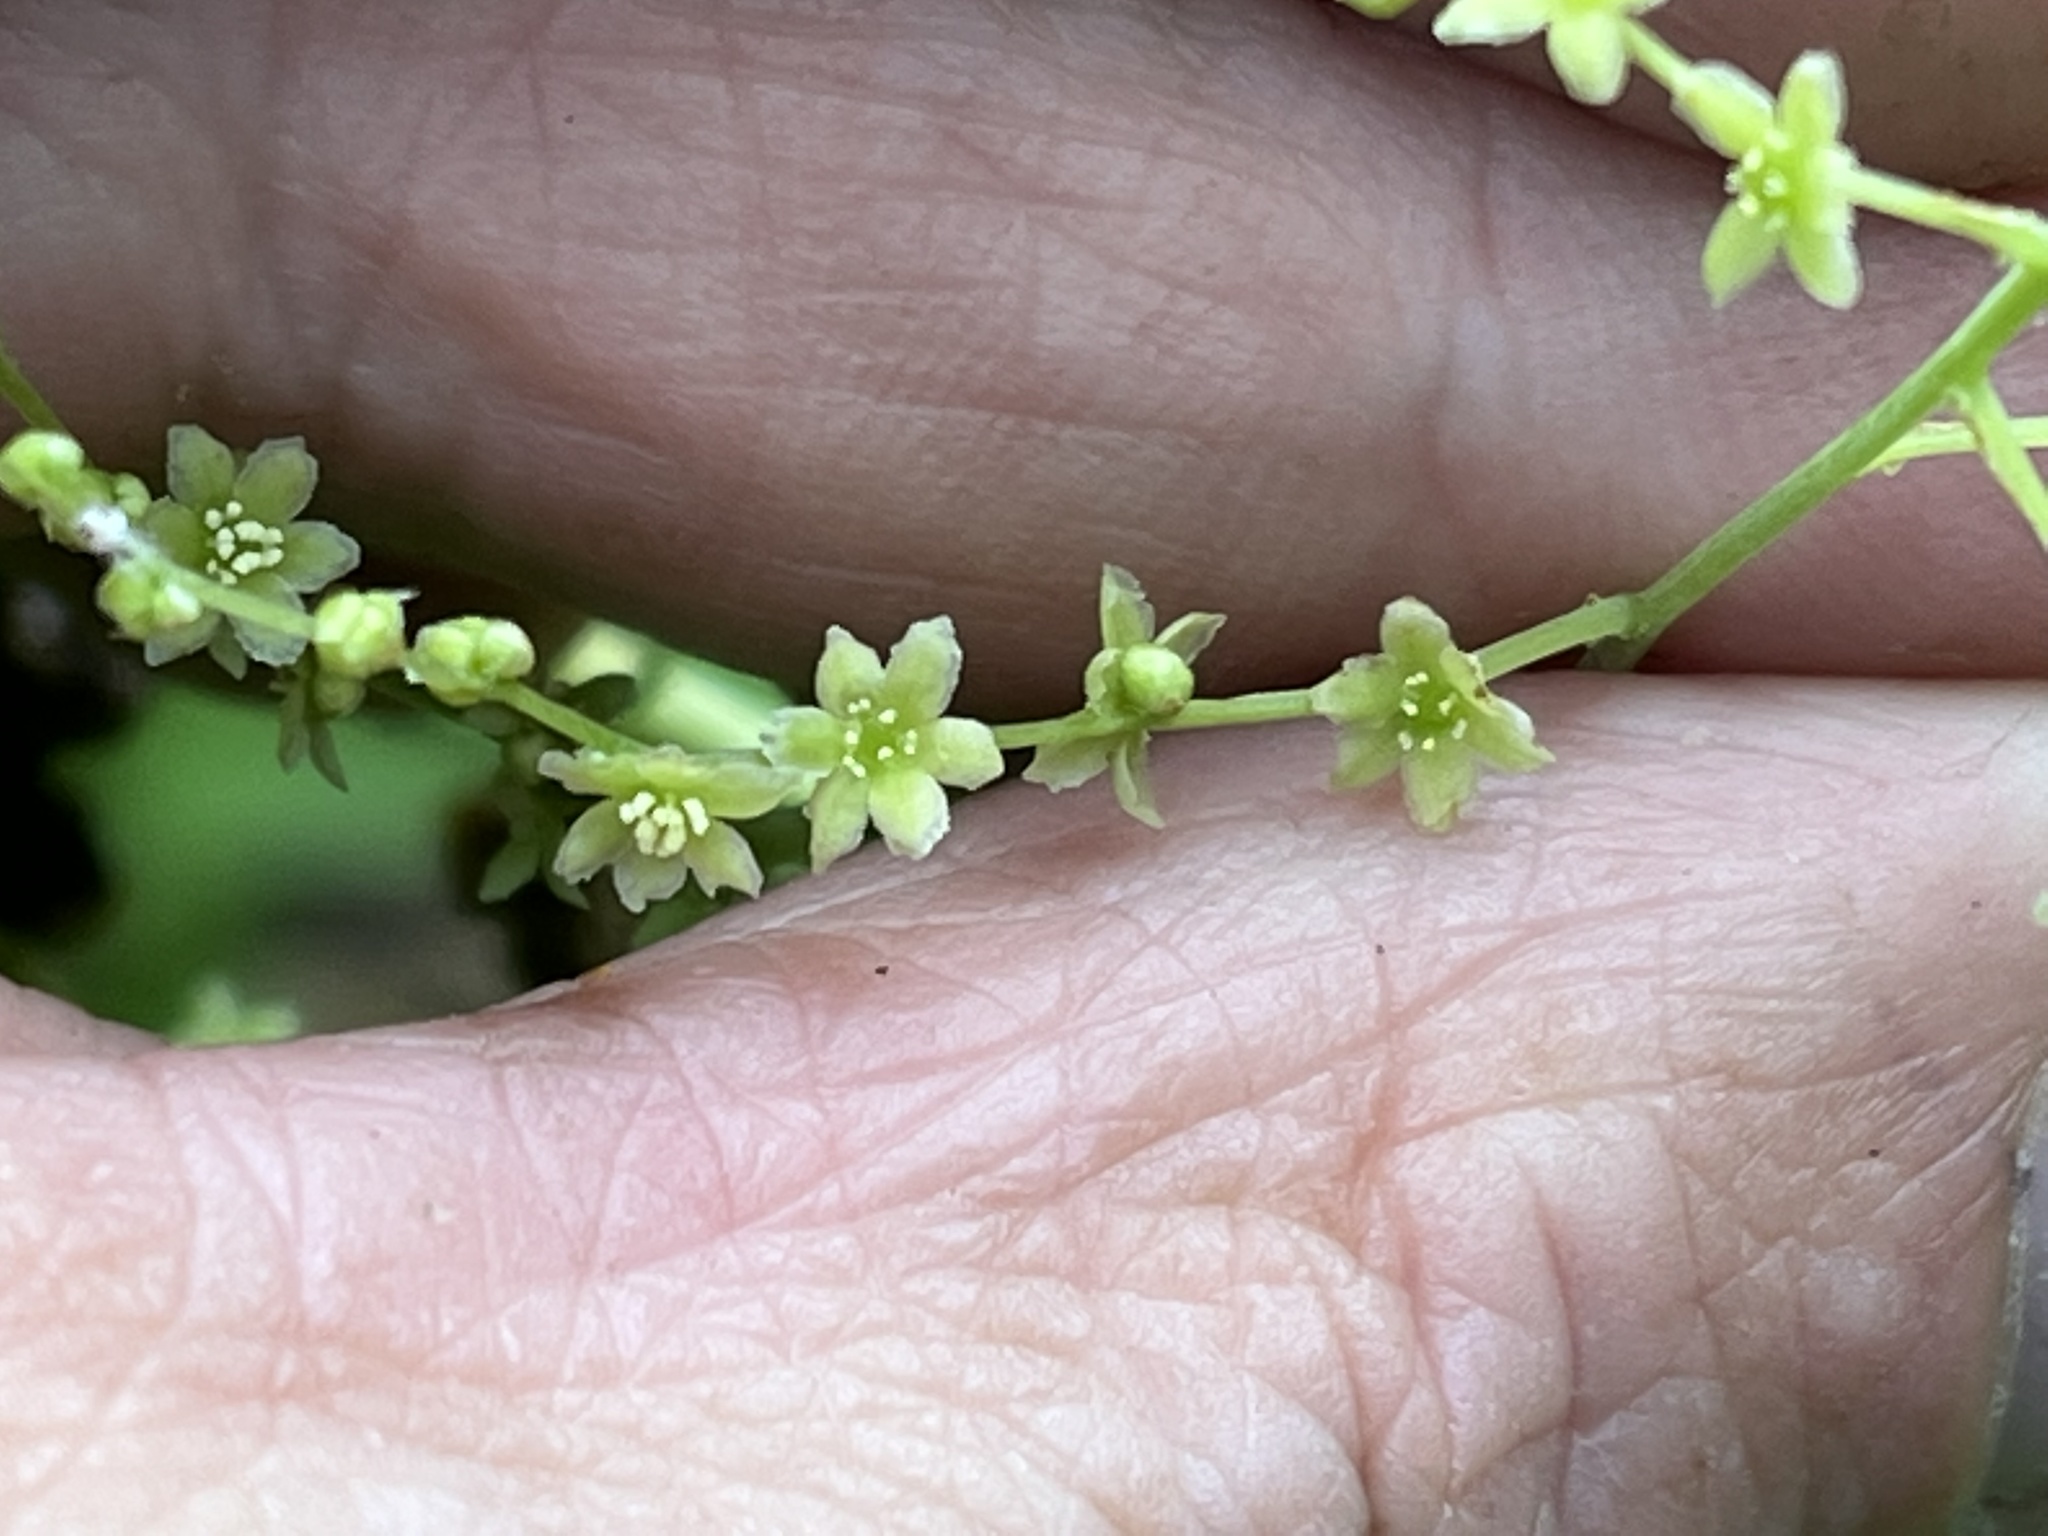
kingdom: Plantae
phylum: Tracheophyta
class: Liliopsida
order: Dioscoreales
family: Dioscoreaceae
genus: Dioscorea
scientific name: Dioscorea villosa
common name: Wild yam
